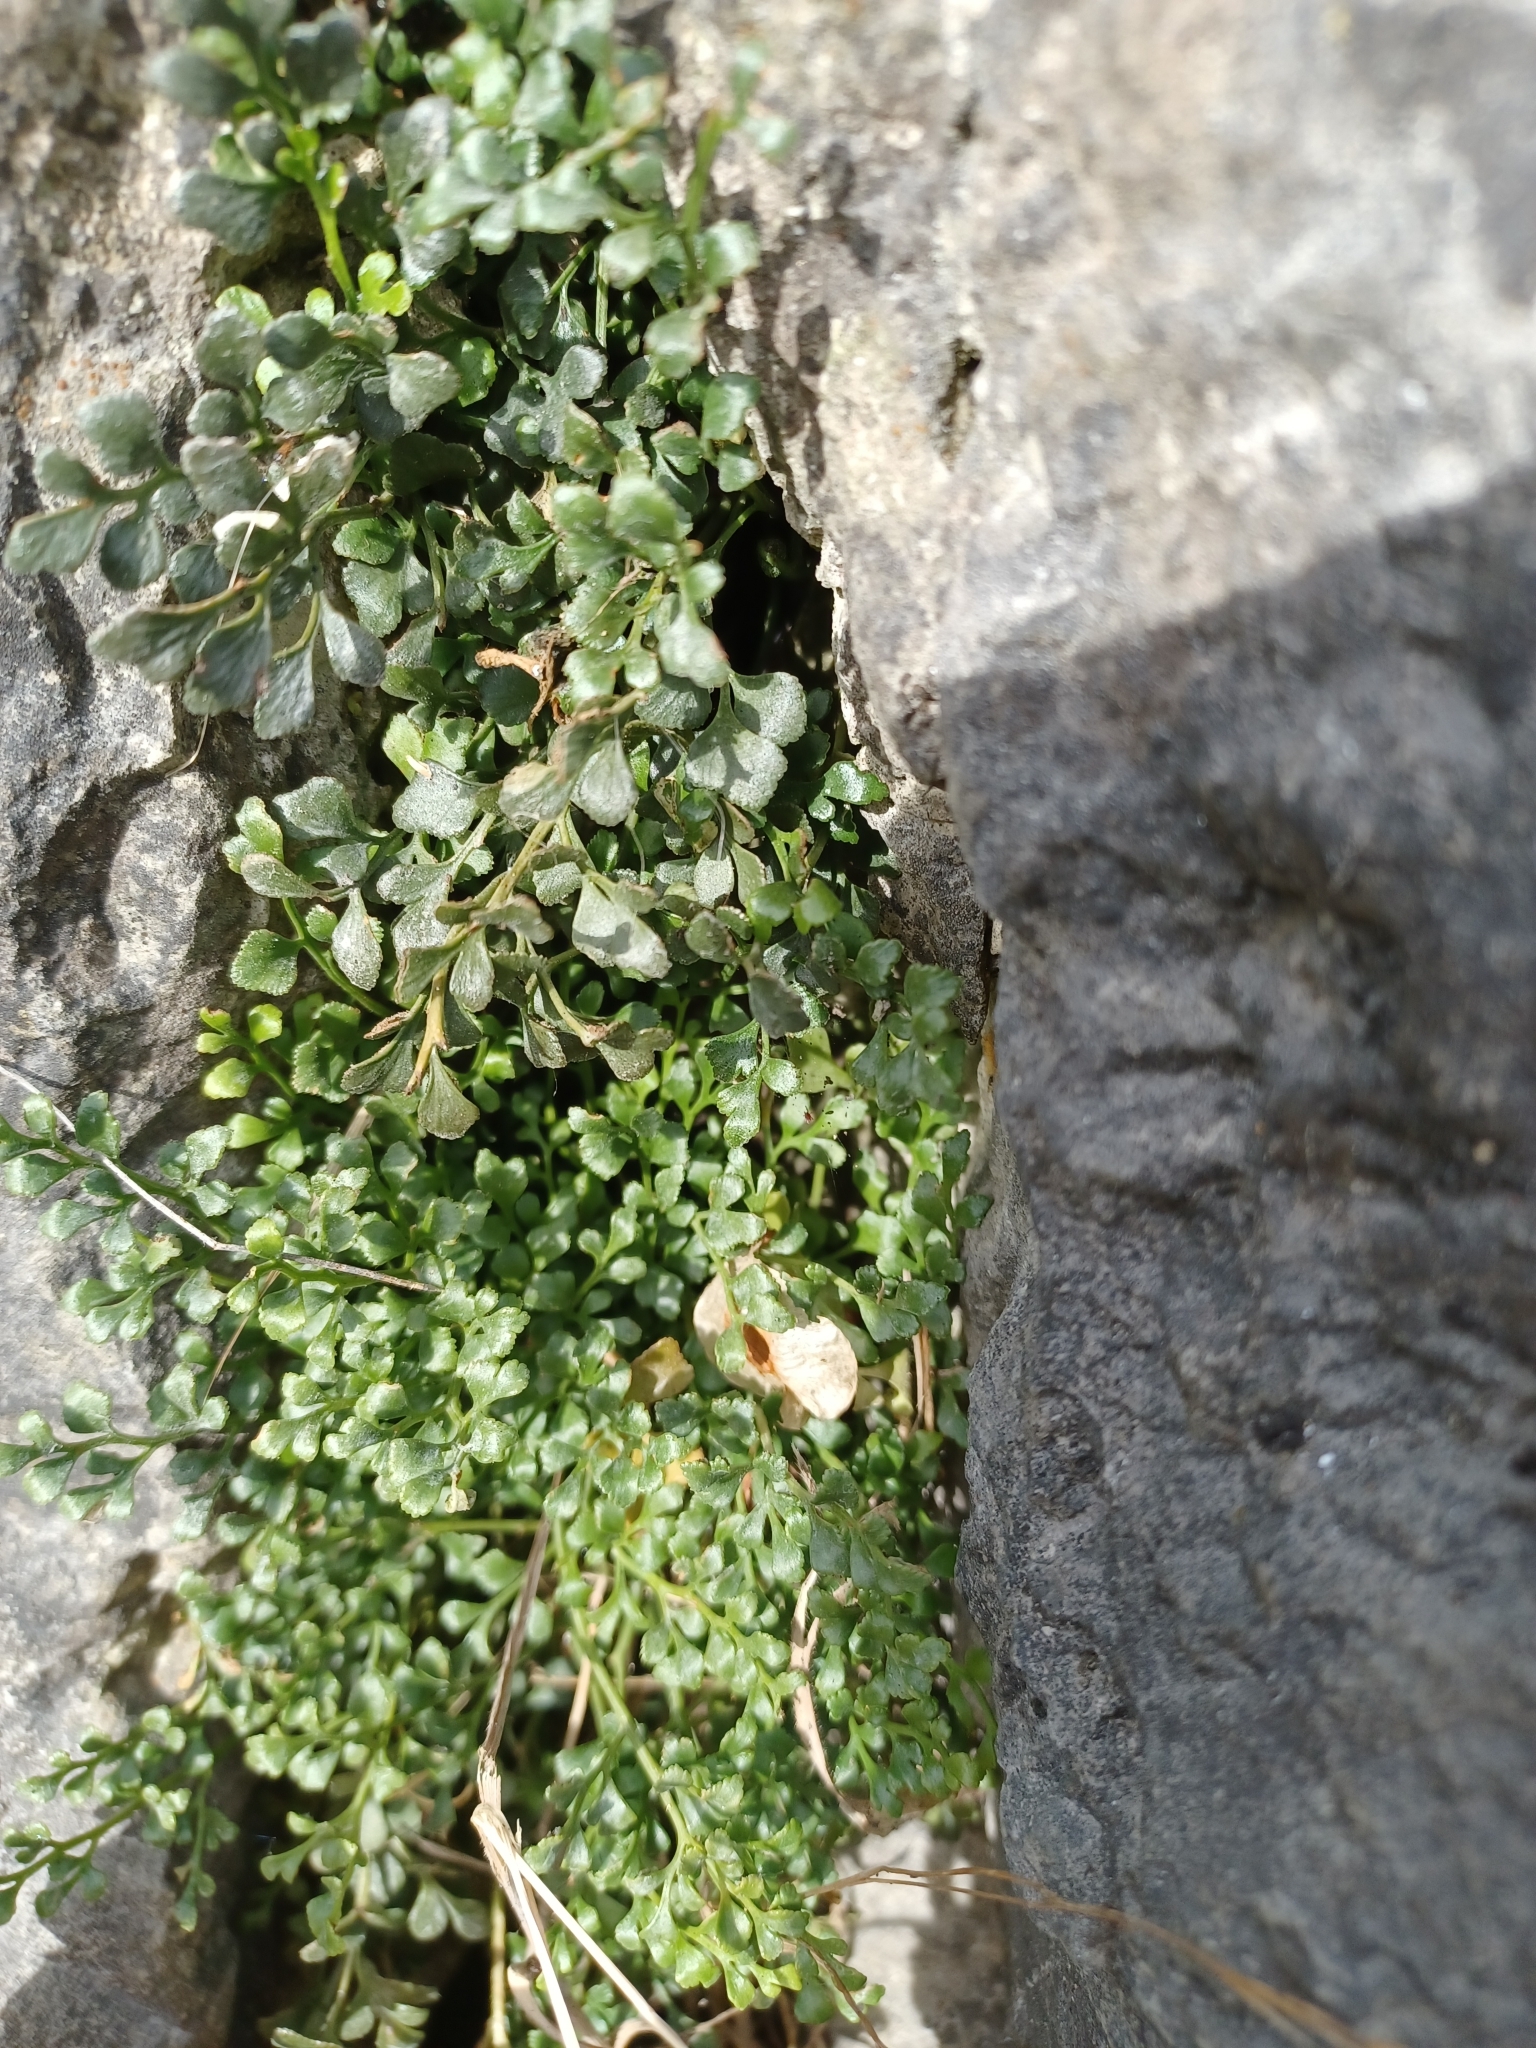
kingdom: Plantae
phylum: Tracheophyta
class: Polypodiopsida
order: Polypodiales
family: Aspleniaceae
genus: Asplenium
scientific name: Asplenium ruta-muraria
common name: Wall-rue
